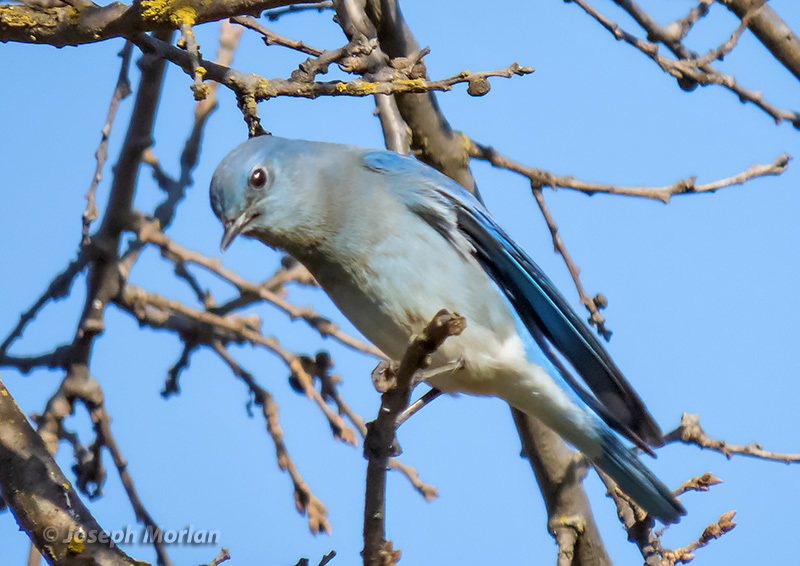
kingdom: Animalia
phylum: Chordata
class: Aves
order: Passeriformes
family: Turdidae
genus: Sialia
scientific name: Sialia currucoides
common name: Mountain bluebird
